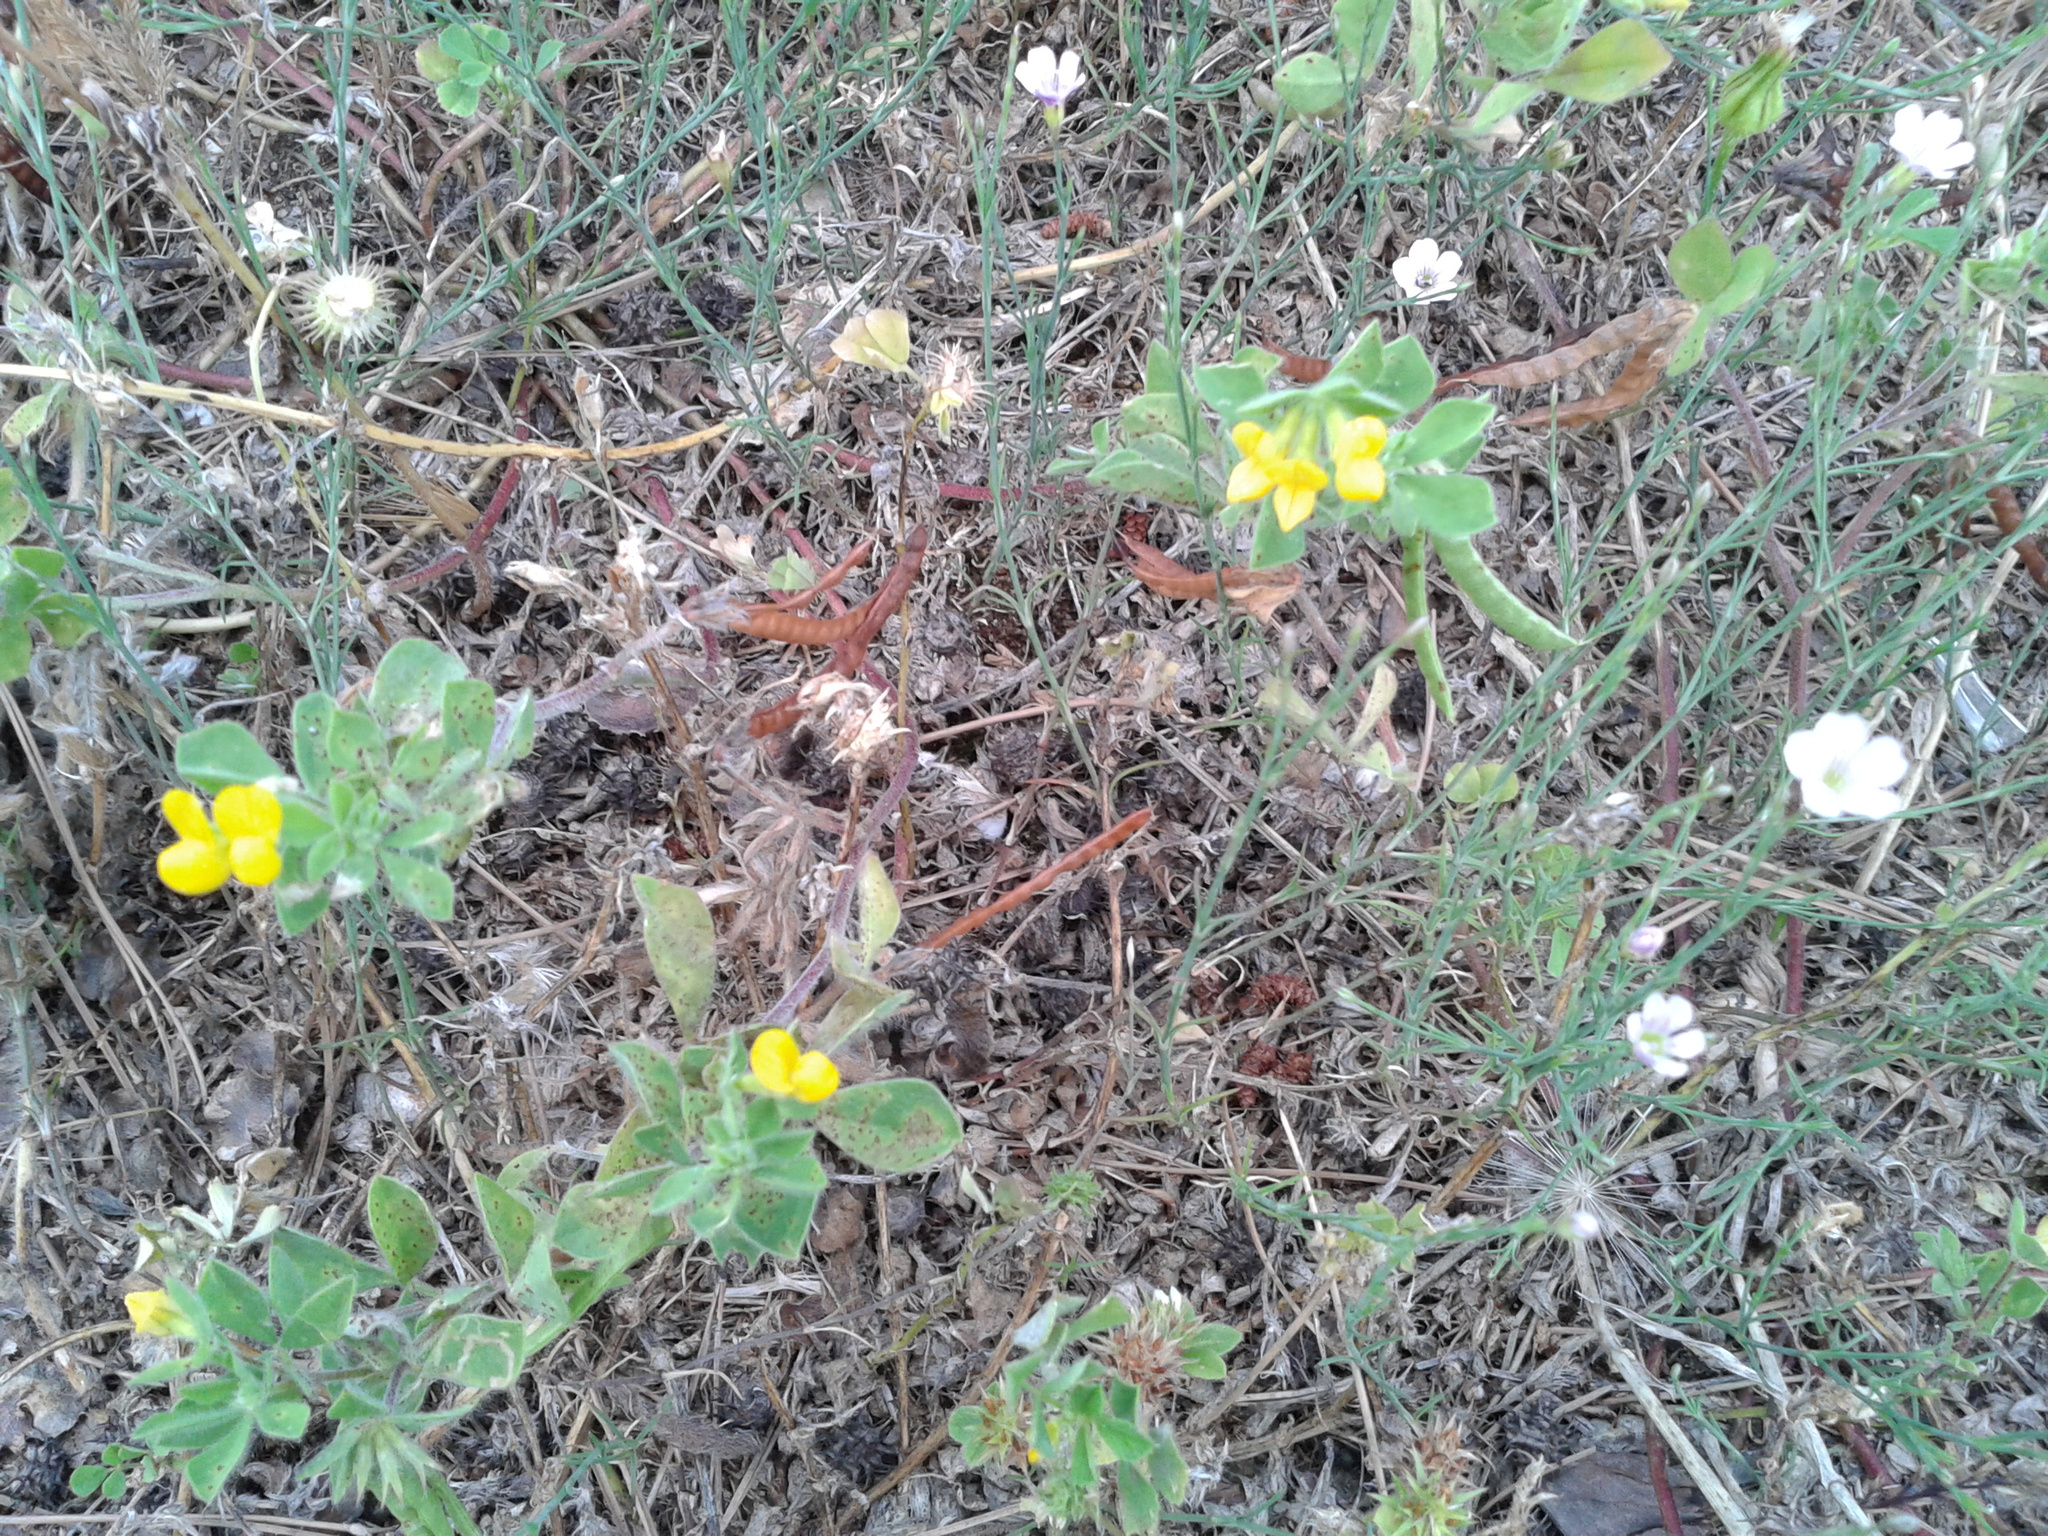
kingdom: Plantae
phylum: Tracheophyta
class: Magnoliopsida
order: Fabales
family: Fabaceae
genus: Lotus
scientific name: Lotus ornithopodioides
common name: Southern bird's-foot trefoil
